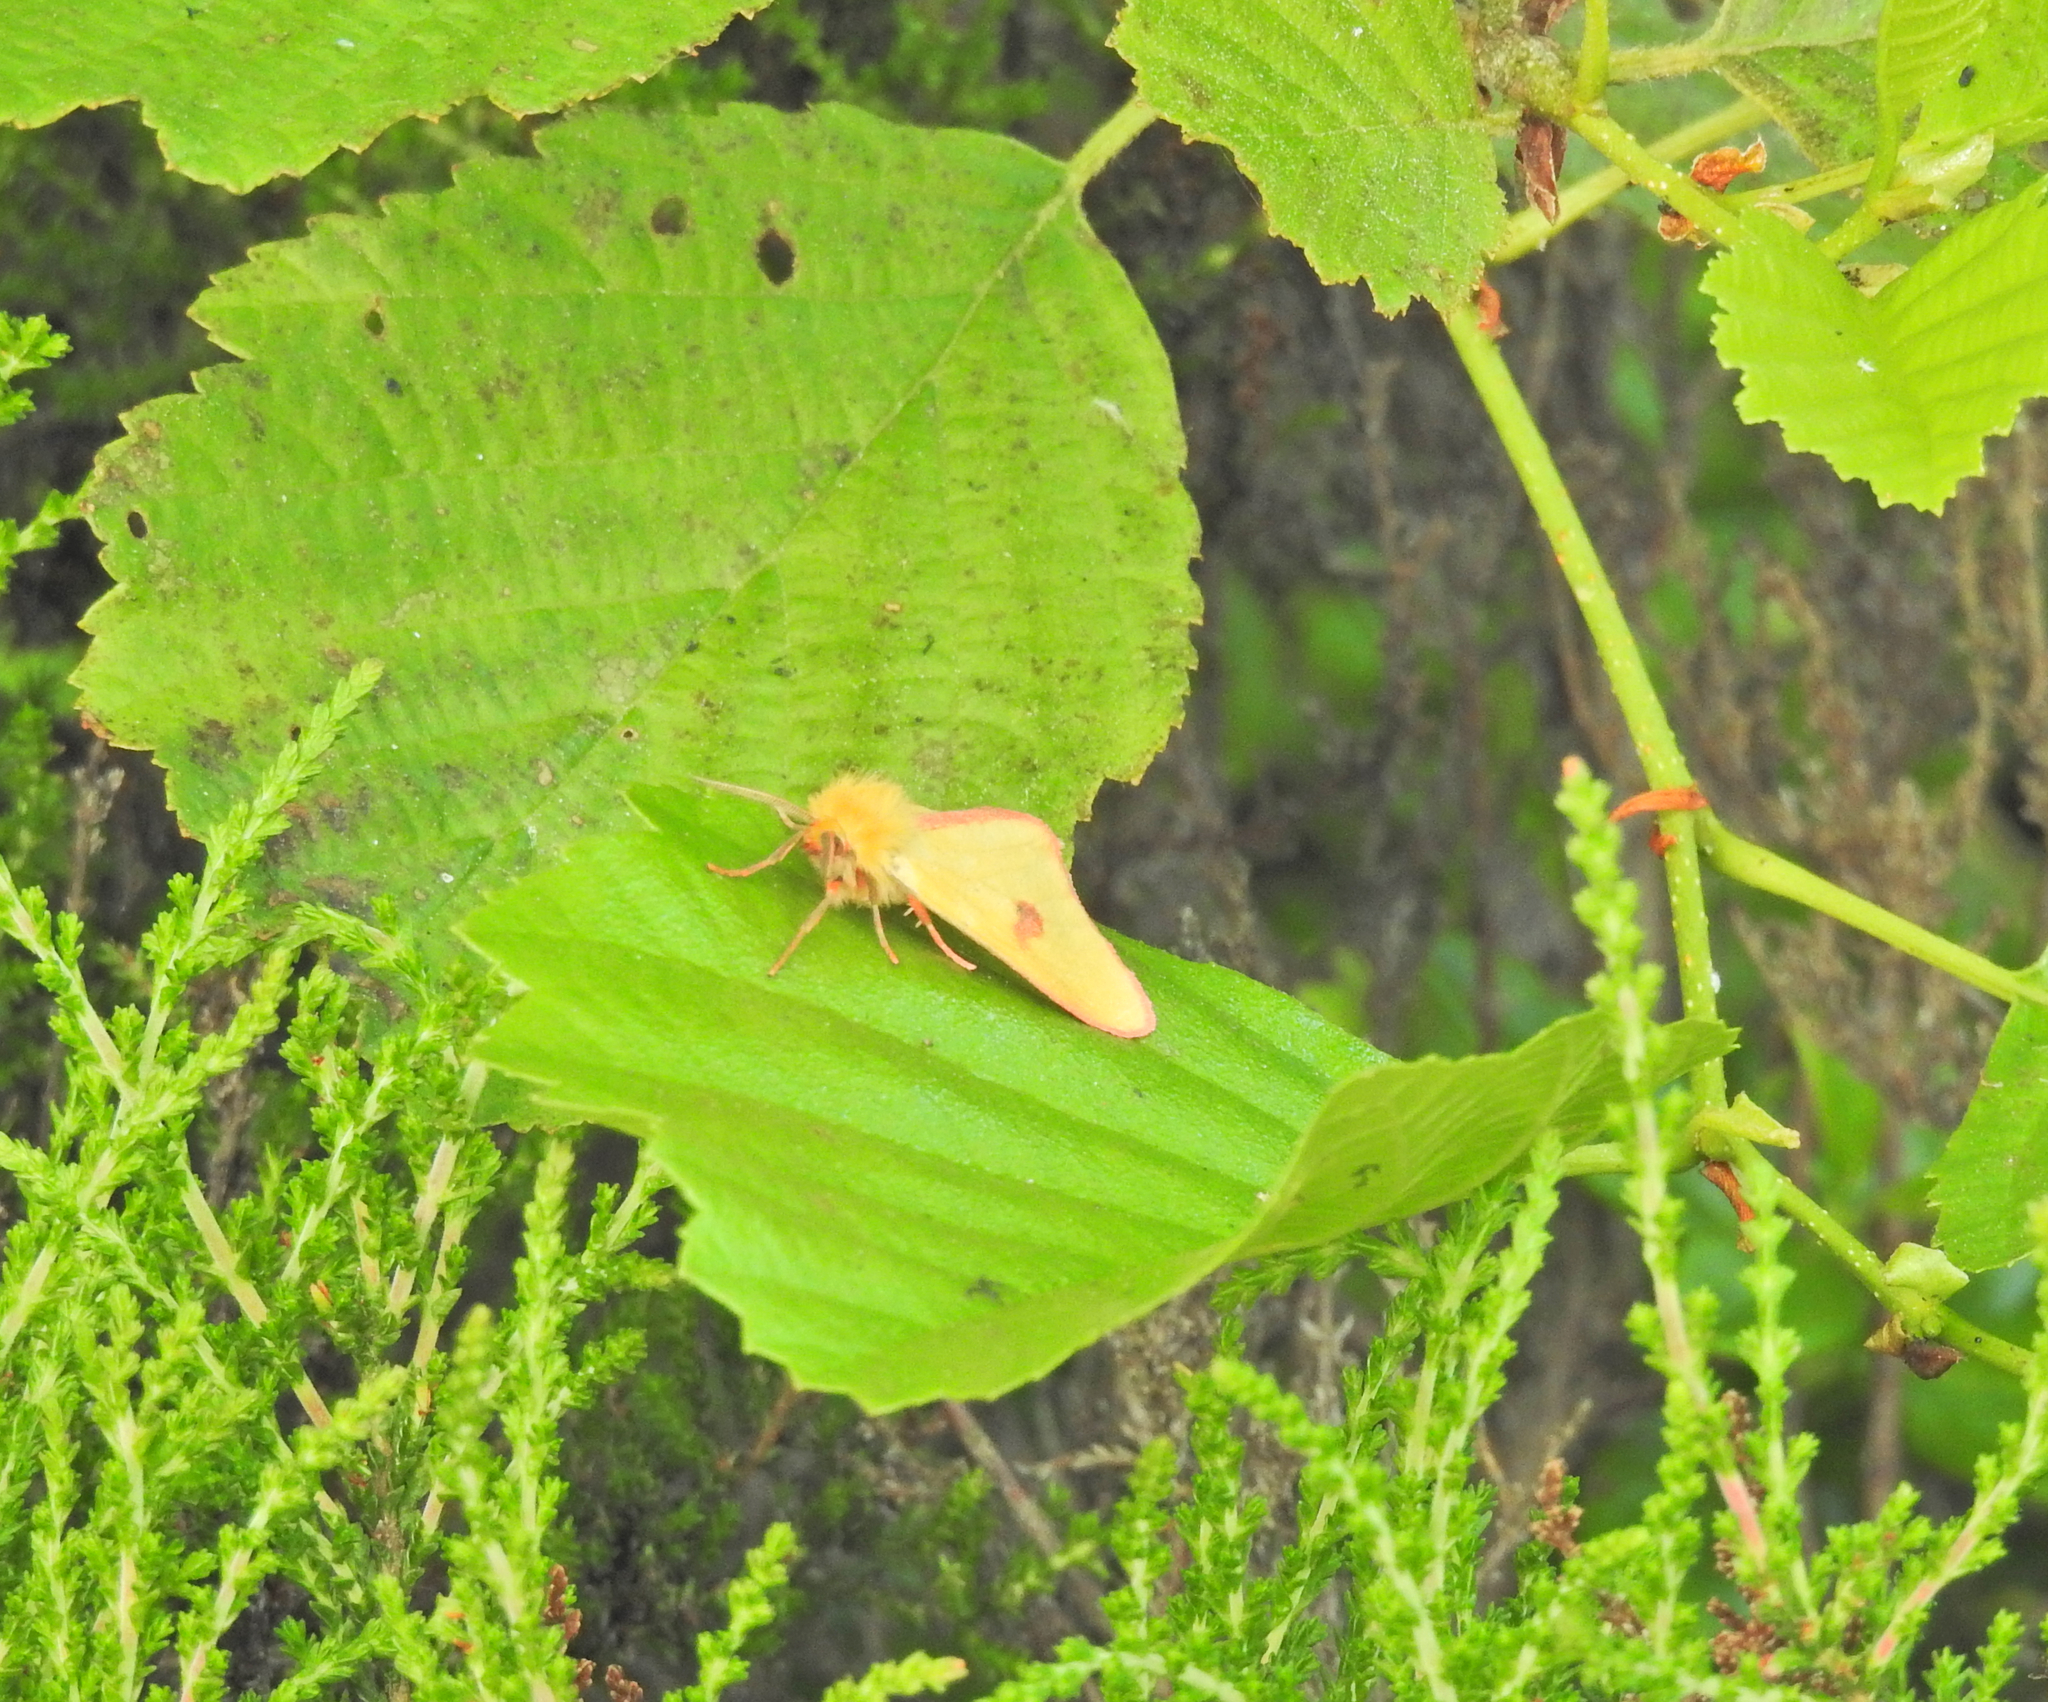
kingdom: Animalia
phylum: Arthropoda
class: Insecta
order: Lepidoptera
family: Erebidae
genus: Diacrisia
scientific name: Diacrisia sannio
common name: Clouded buff
